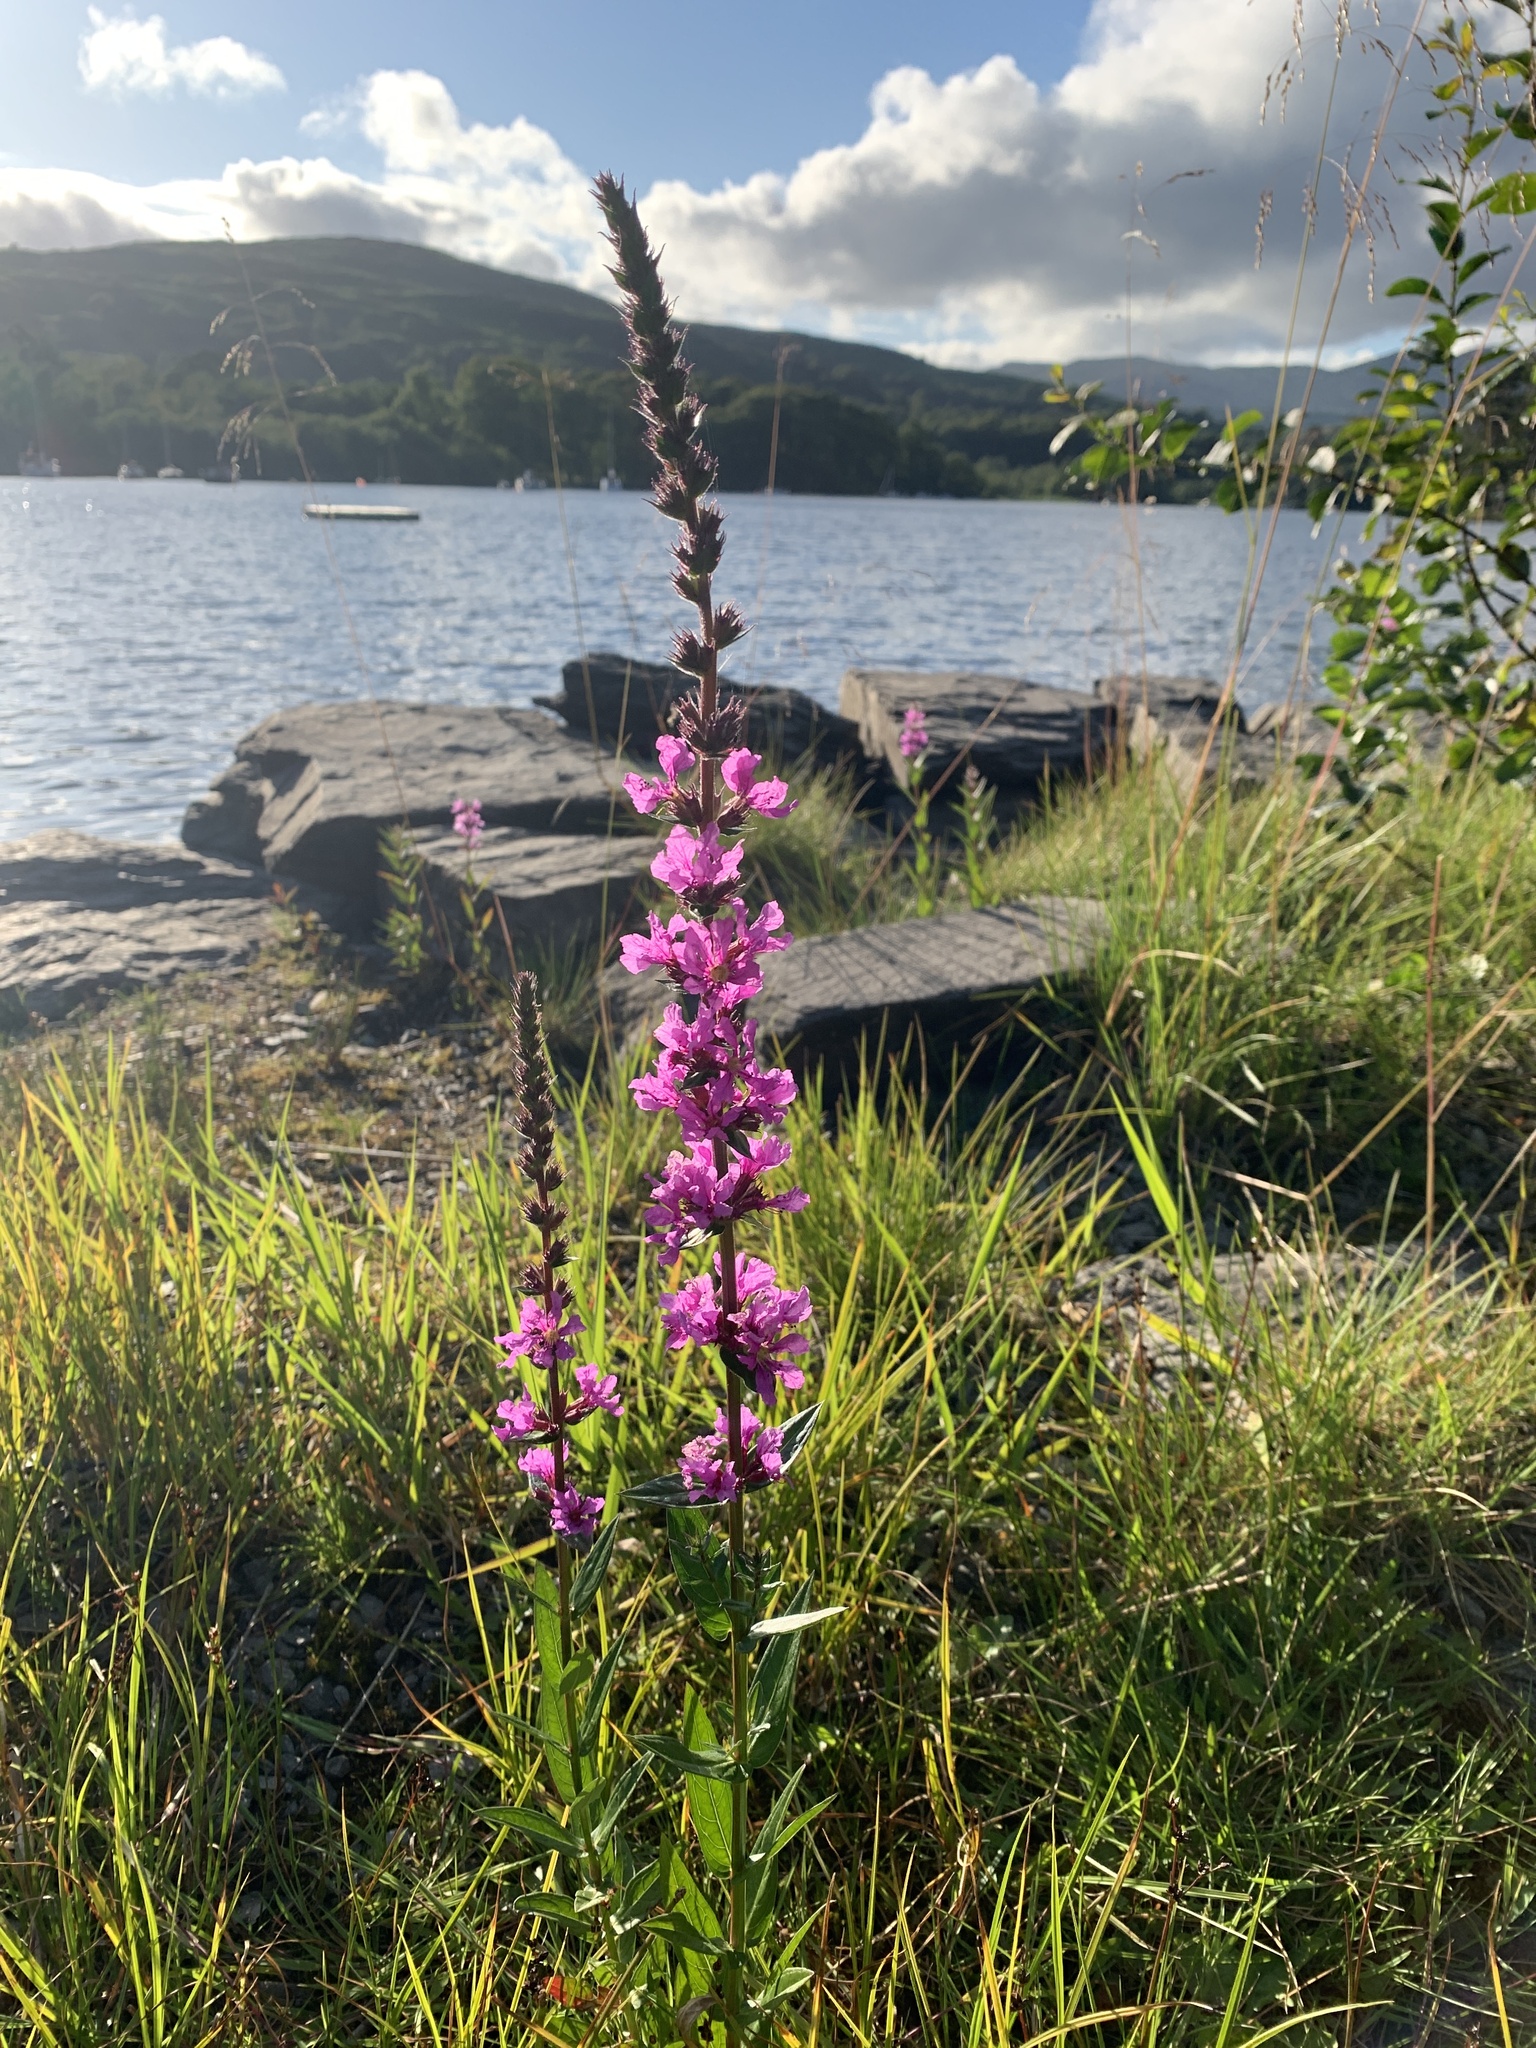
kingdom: Plantae
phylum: Tracheophyta
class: Magnoliopsida
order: Myrtales
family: Lythraceae
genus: Lythrum
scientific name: Lythrum salicaria
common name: Purple loosestrife
